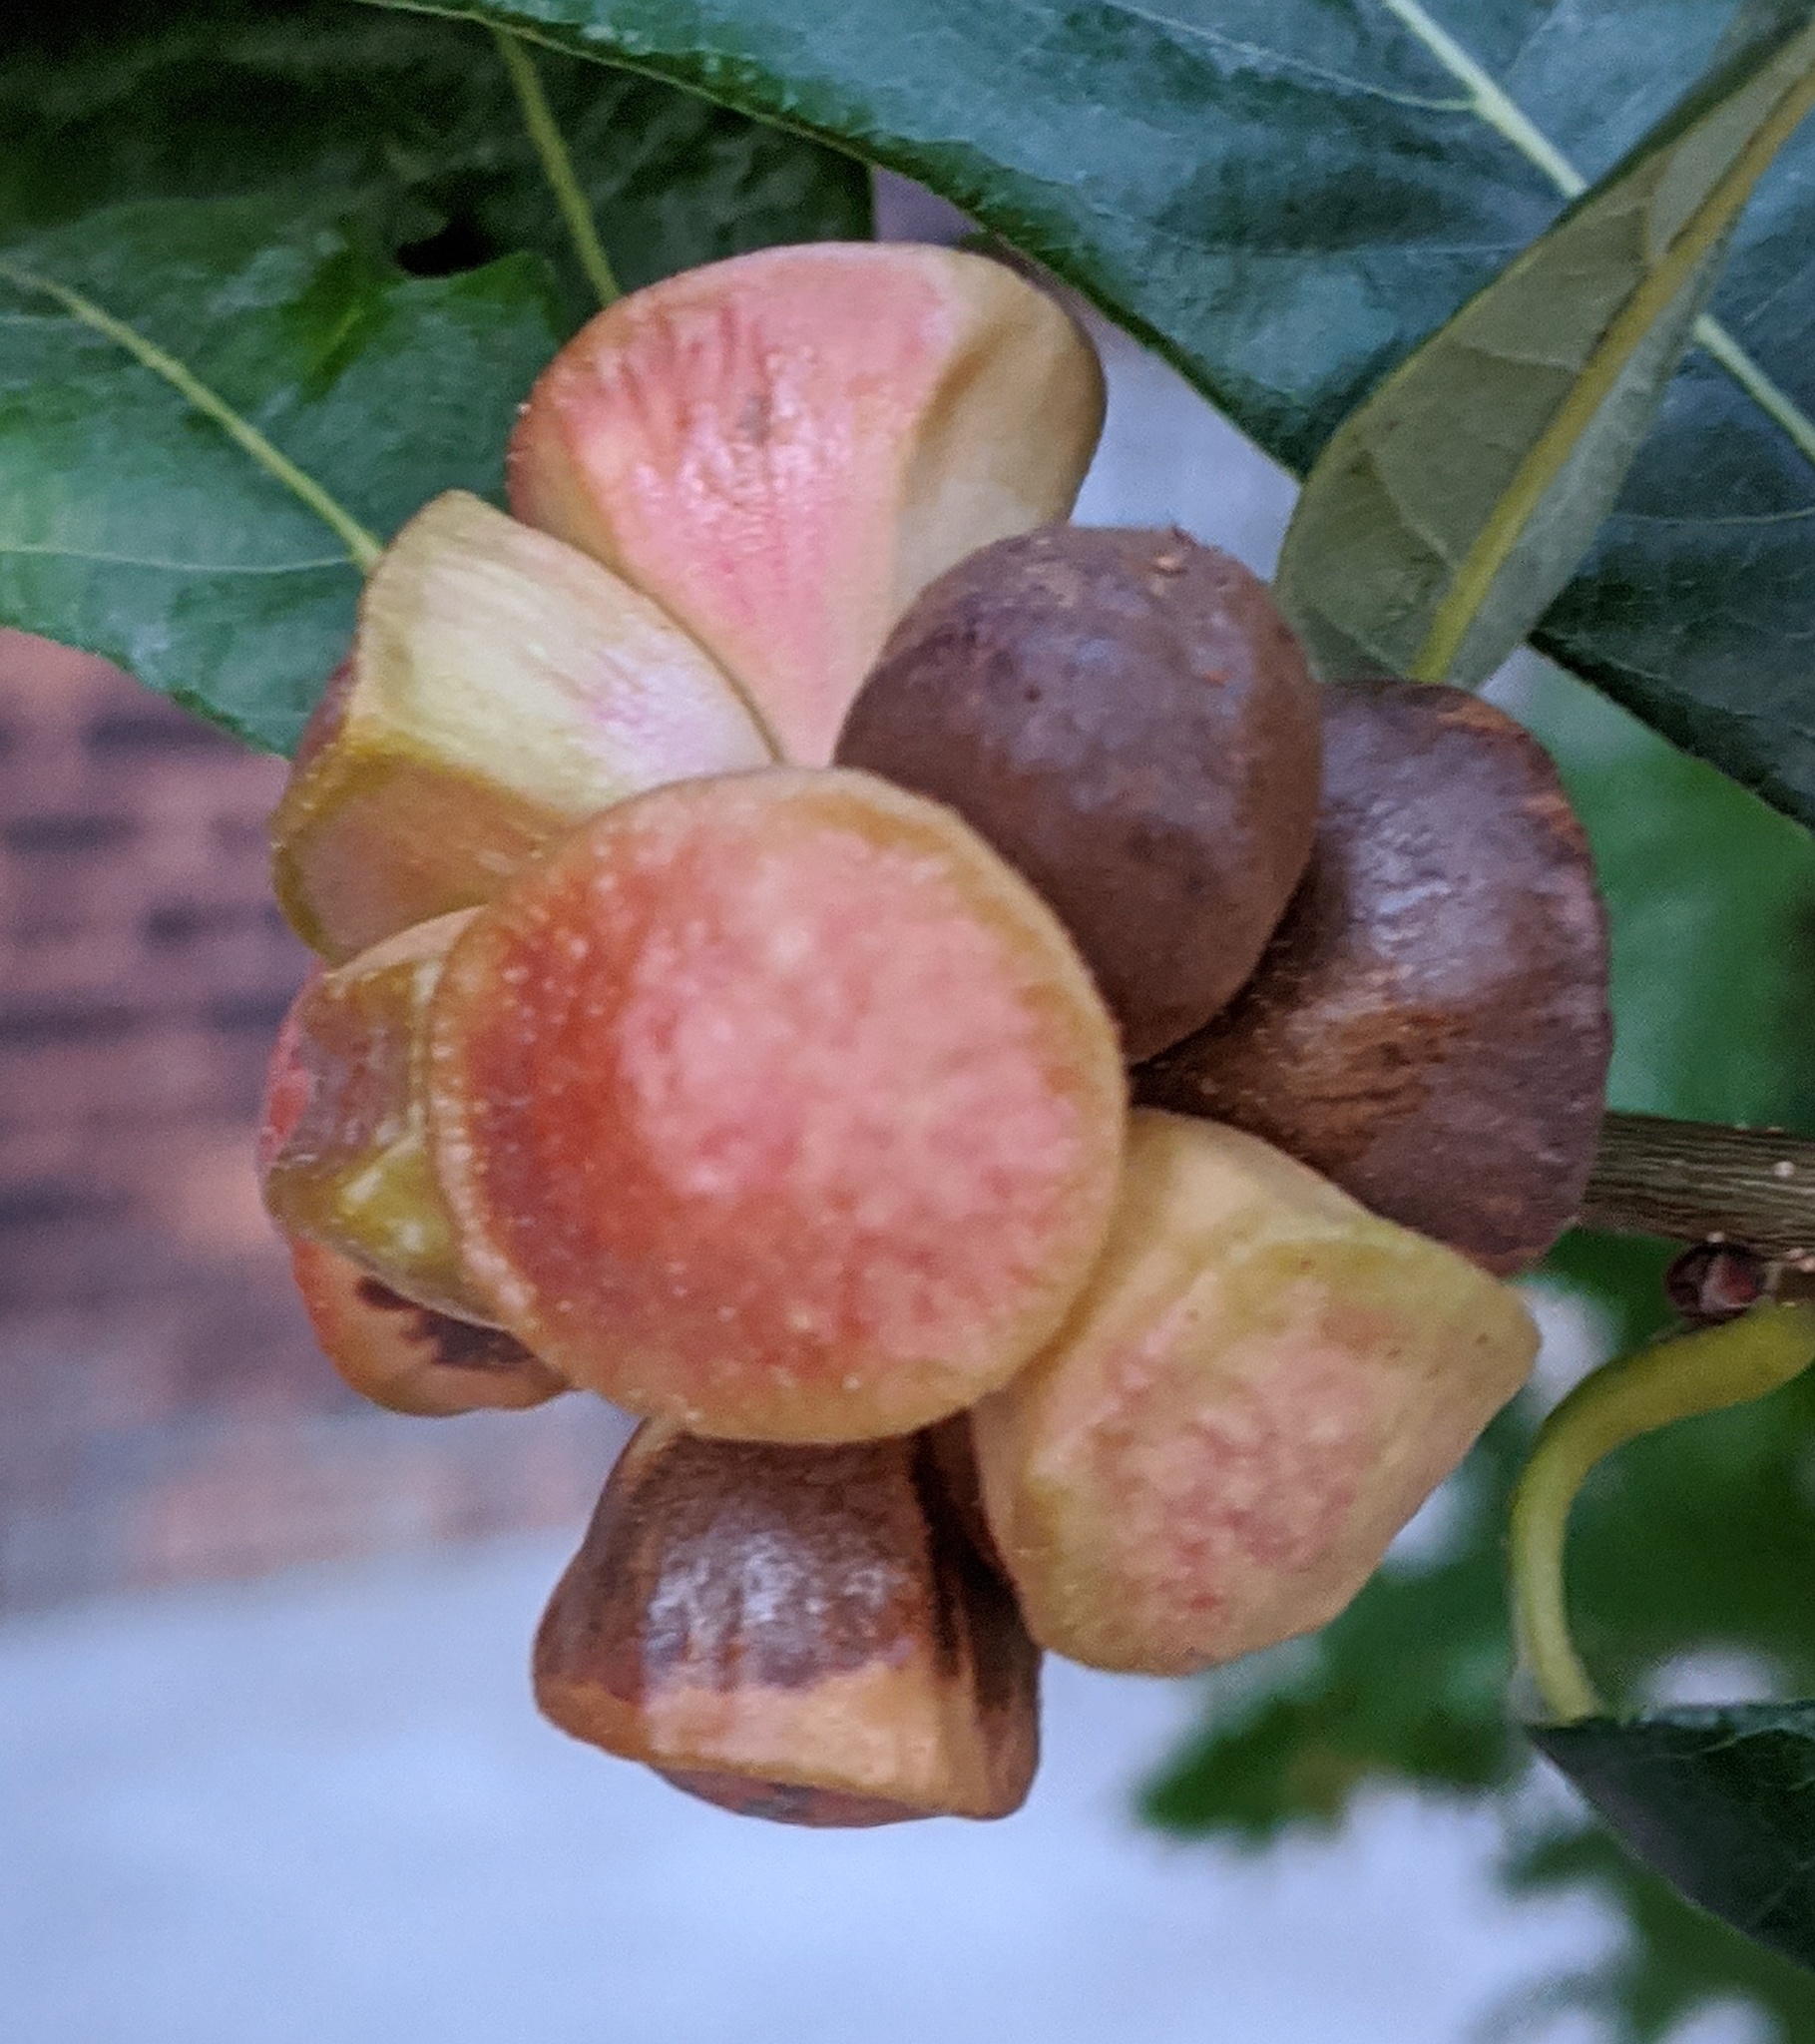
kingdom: Animalia
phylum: Arthropoda
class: Insecta
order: Hymenoptera
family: Cynipidae
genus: Andricus
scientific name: Andricus
